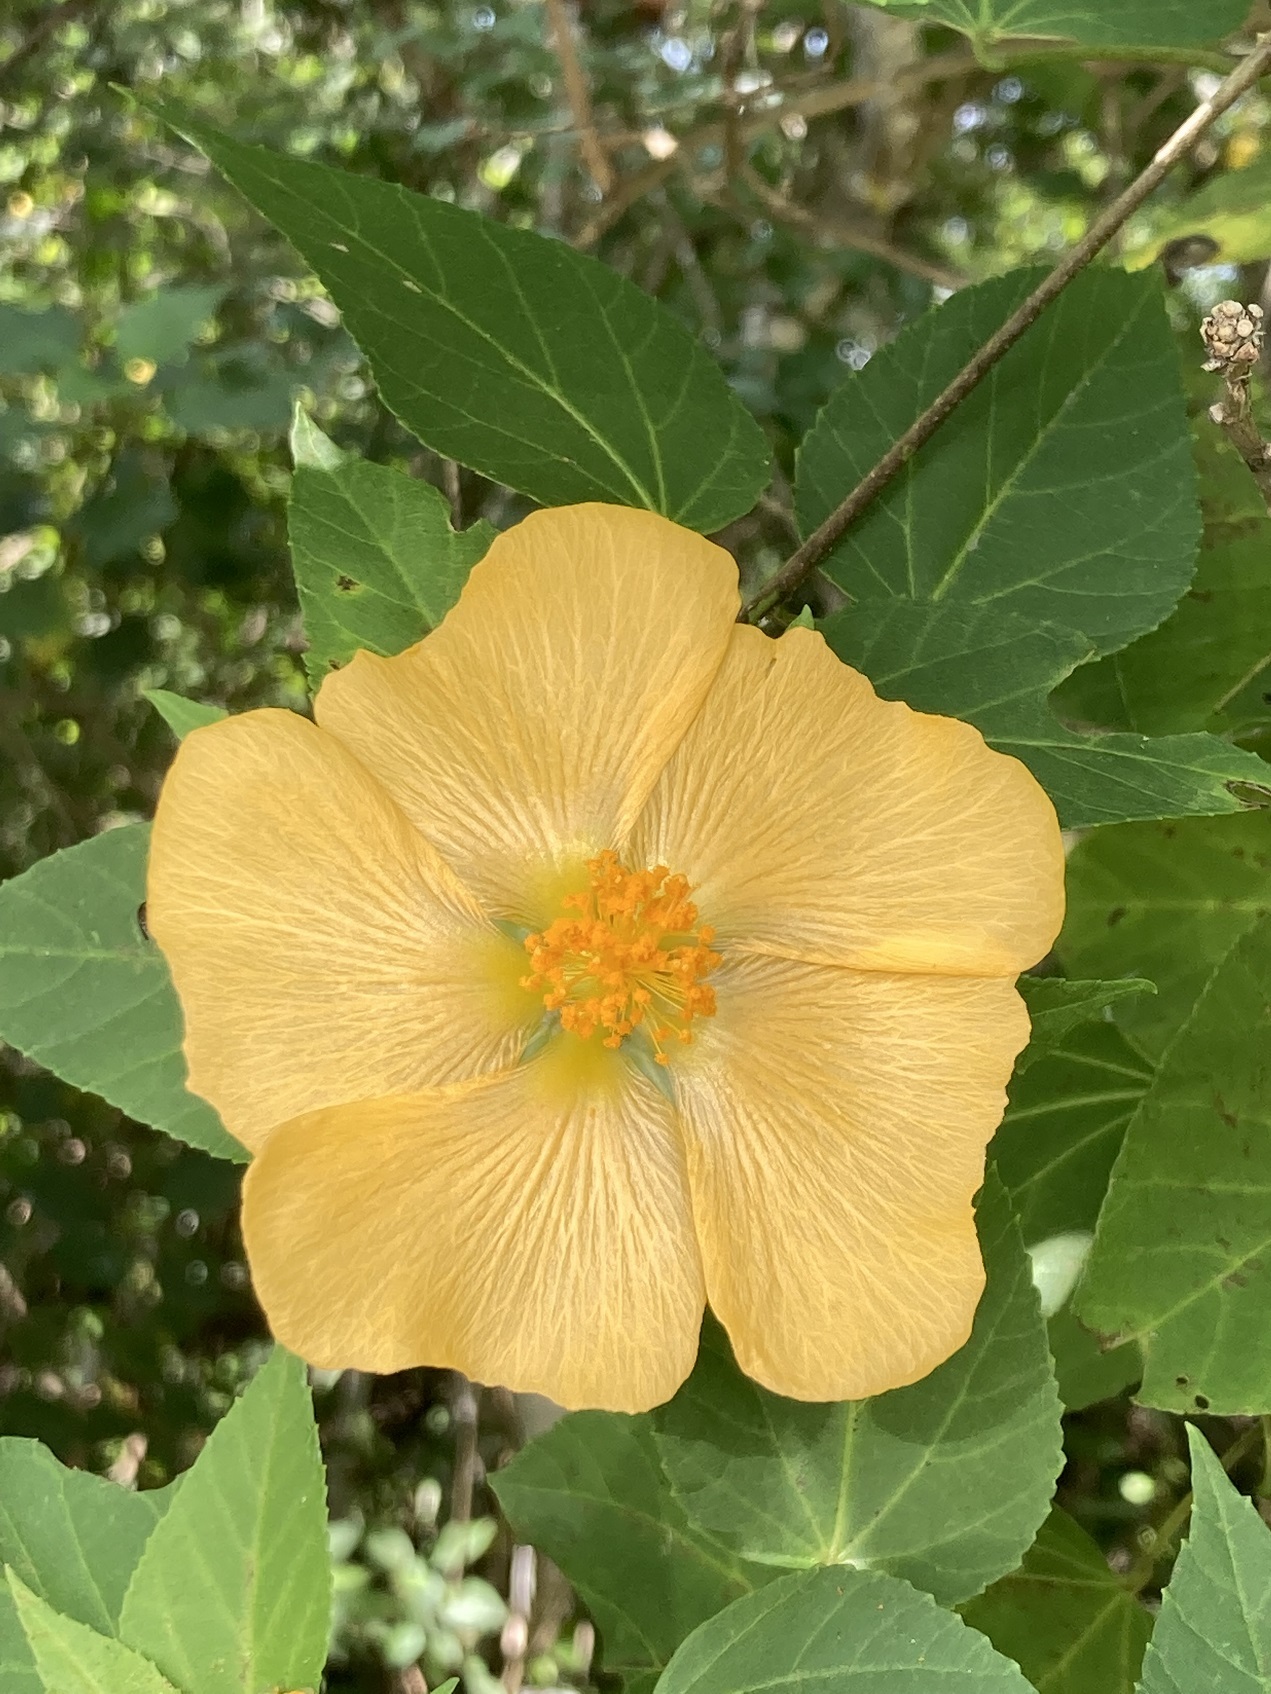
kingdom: Plantae
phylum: Tracheophyta
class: Magnoliopsida
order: Malvales
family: Malvaceae
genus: Dendrosida
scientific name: Dendrosida sharpiana
